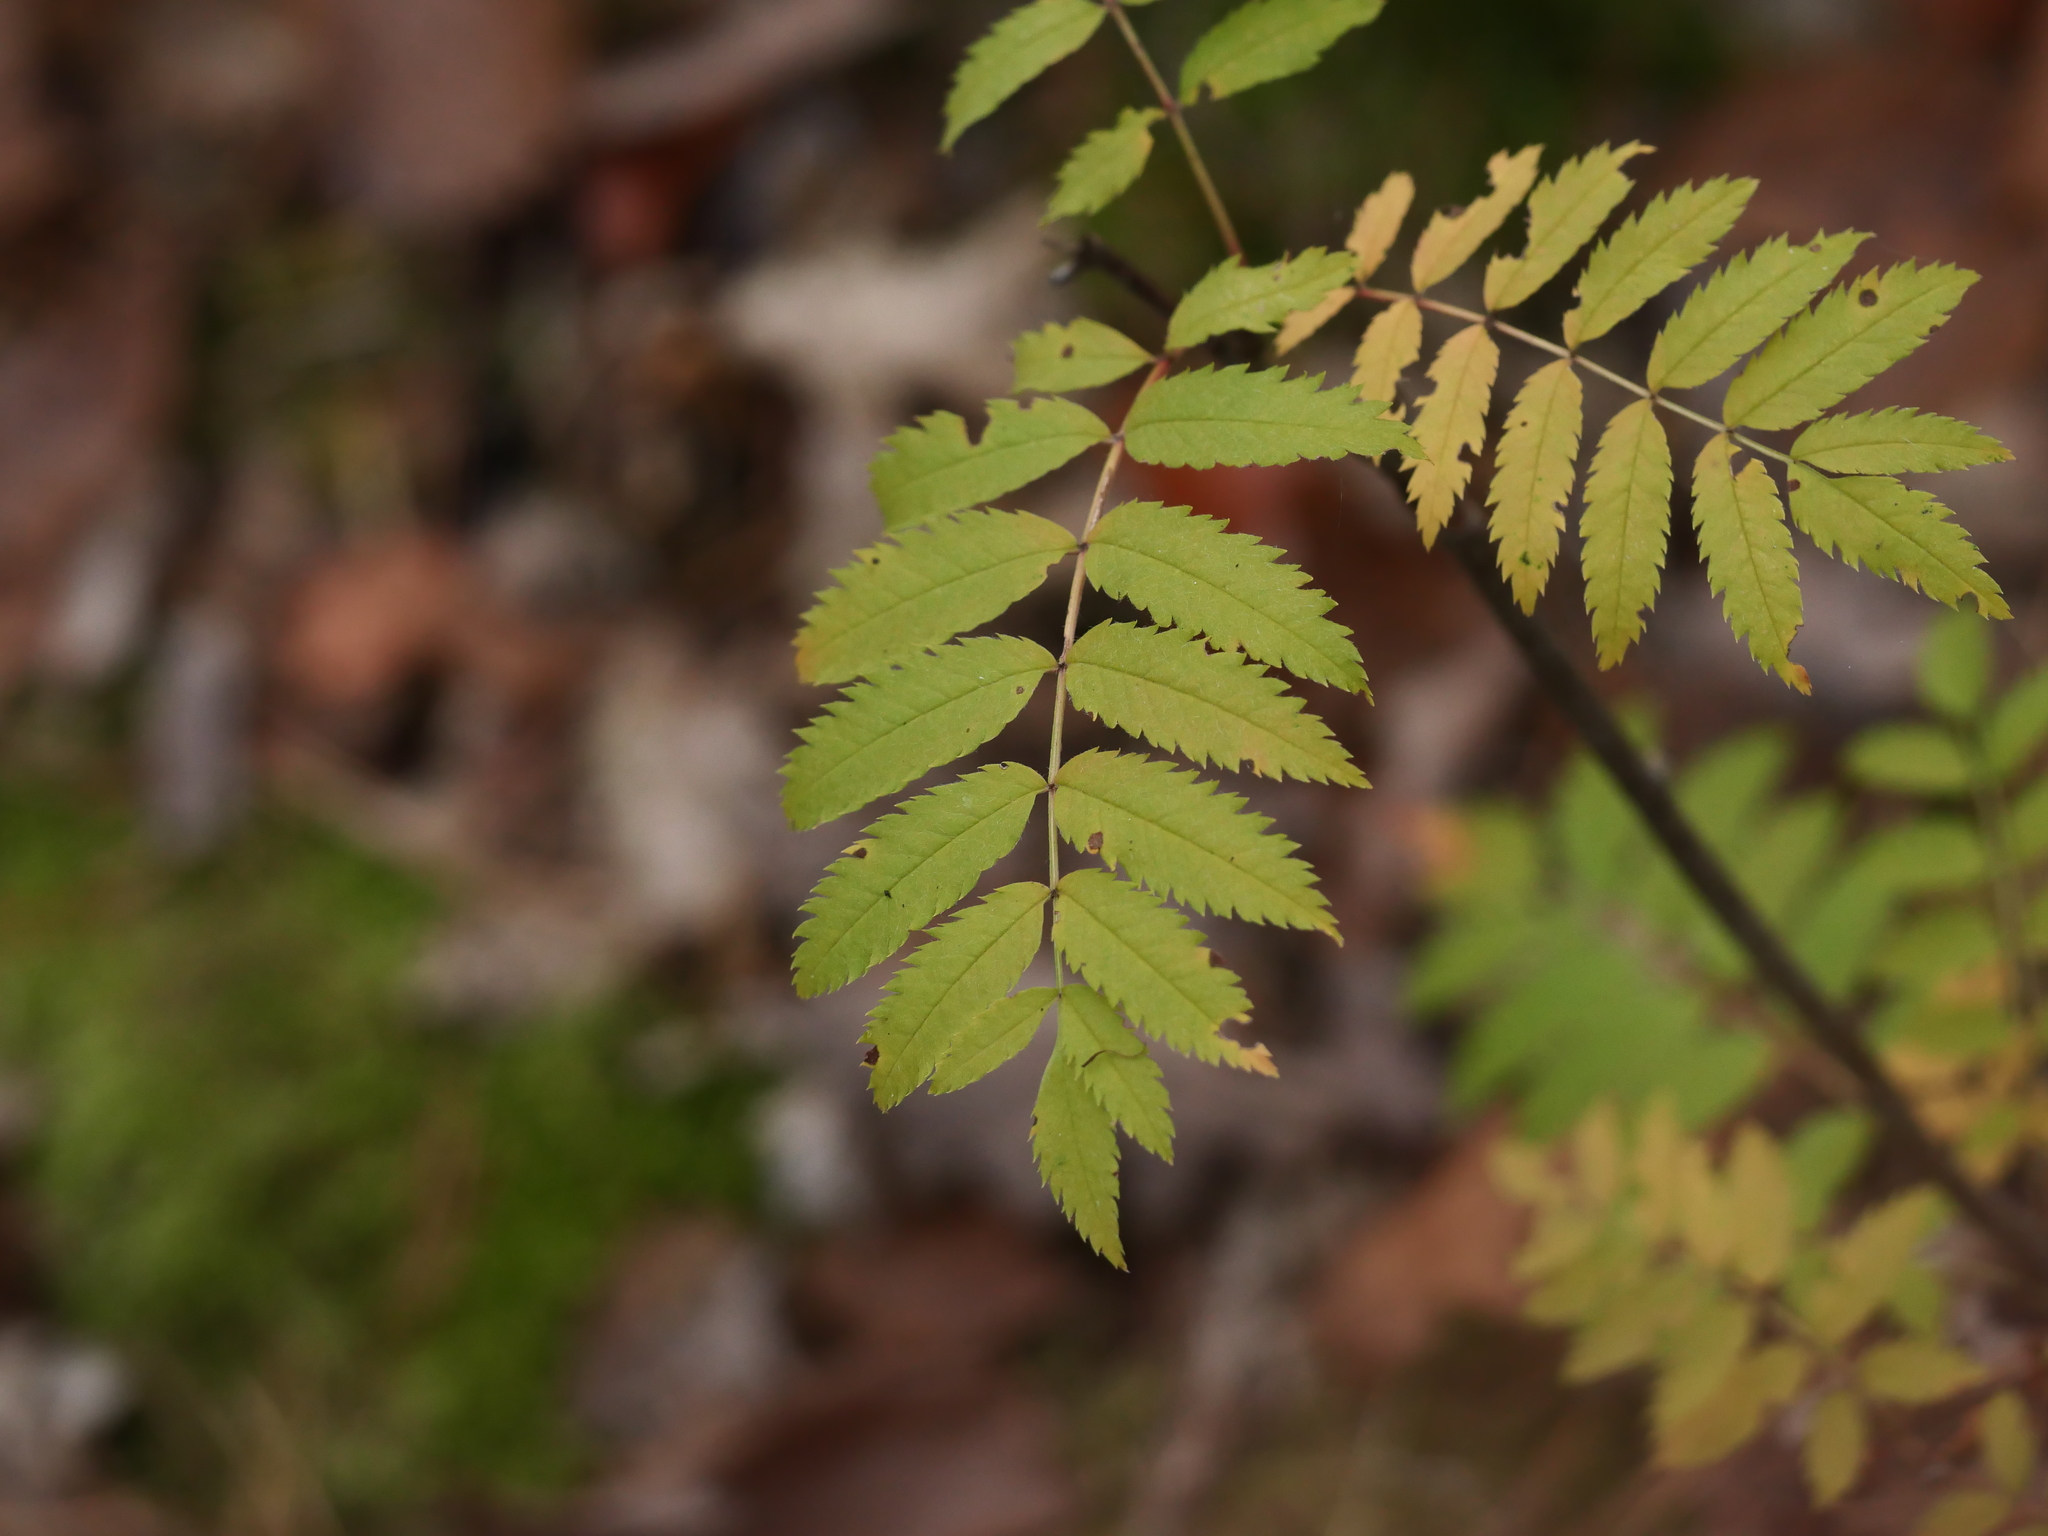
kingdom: Plantae
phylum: Tracheophyta
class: Magnoliopsida
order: Rosales
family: Rosaceae
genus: Sorbus
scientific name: Sorbus aucuparia
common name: Rowan
